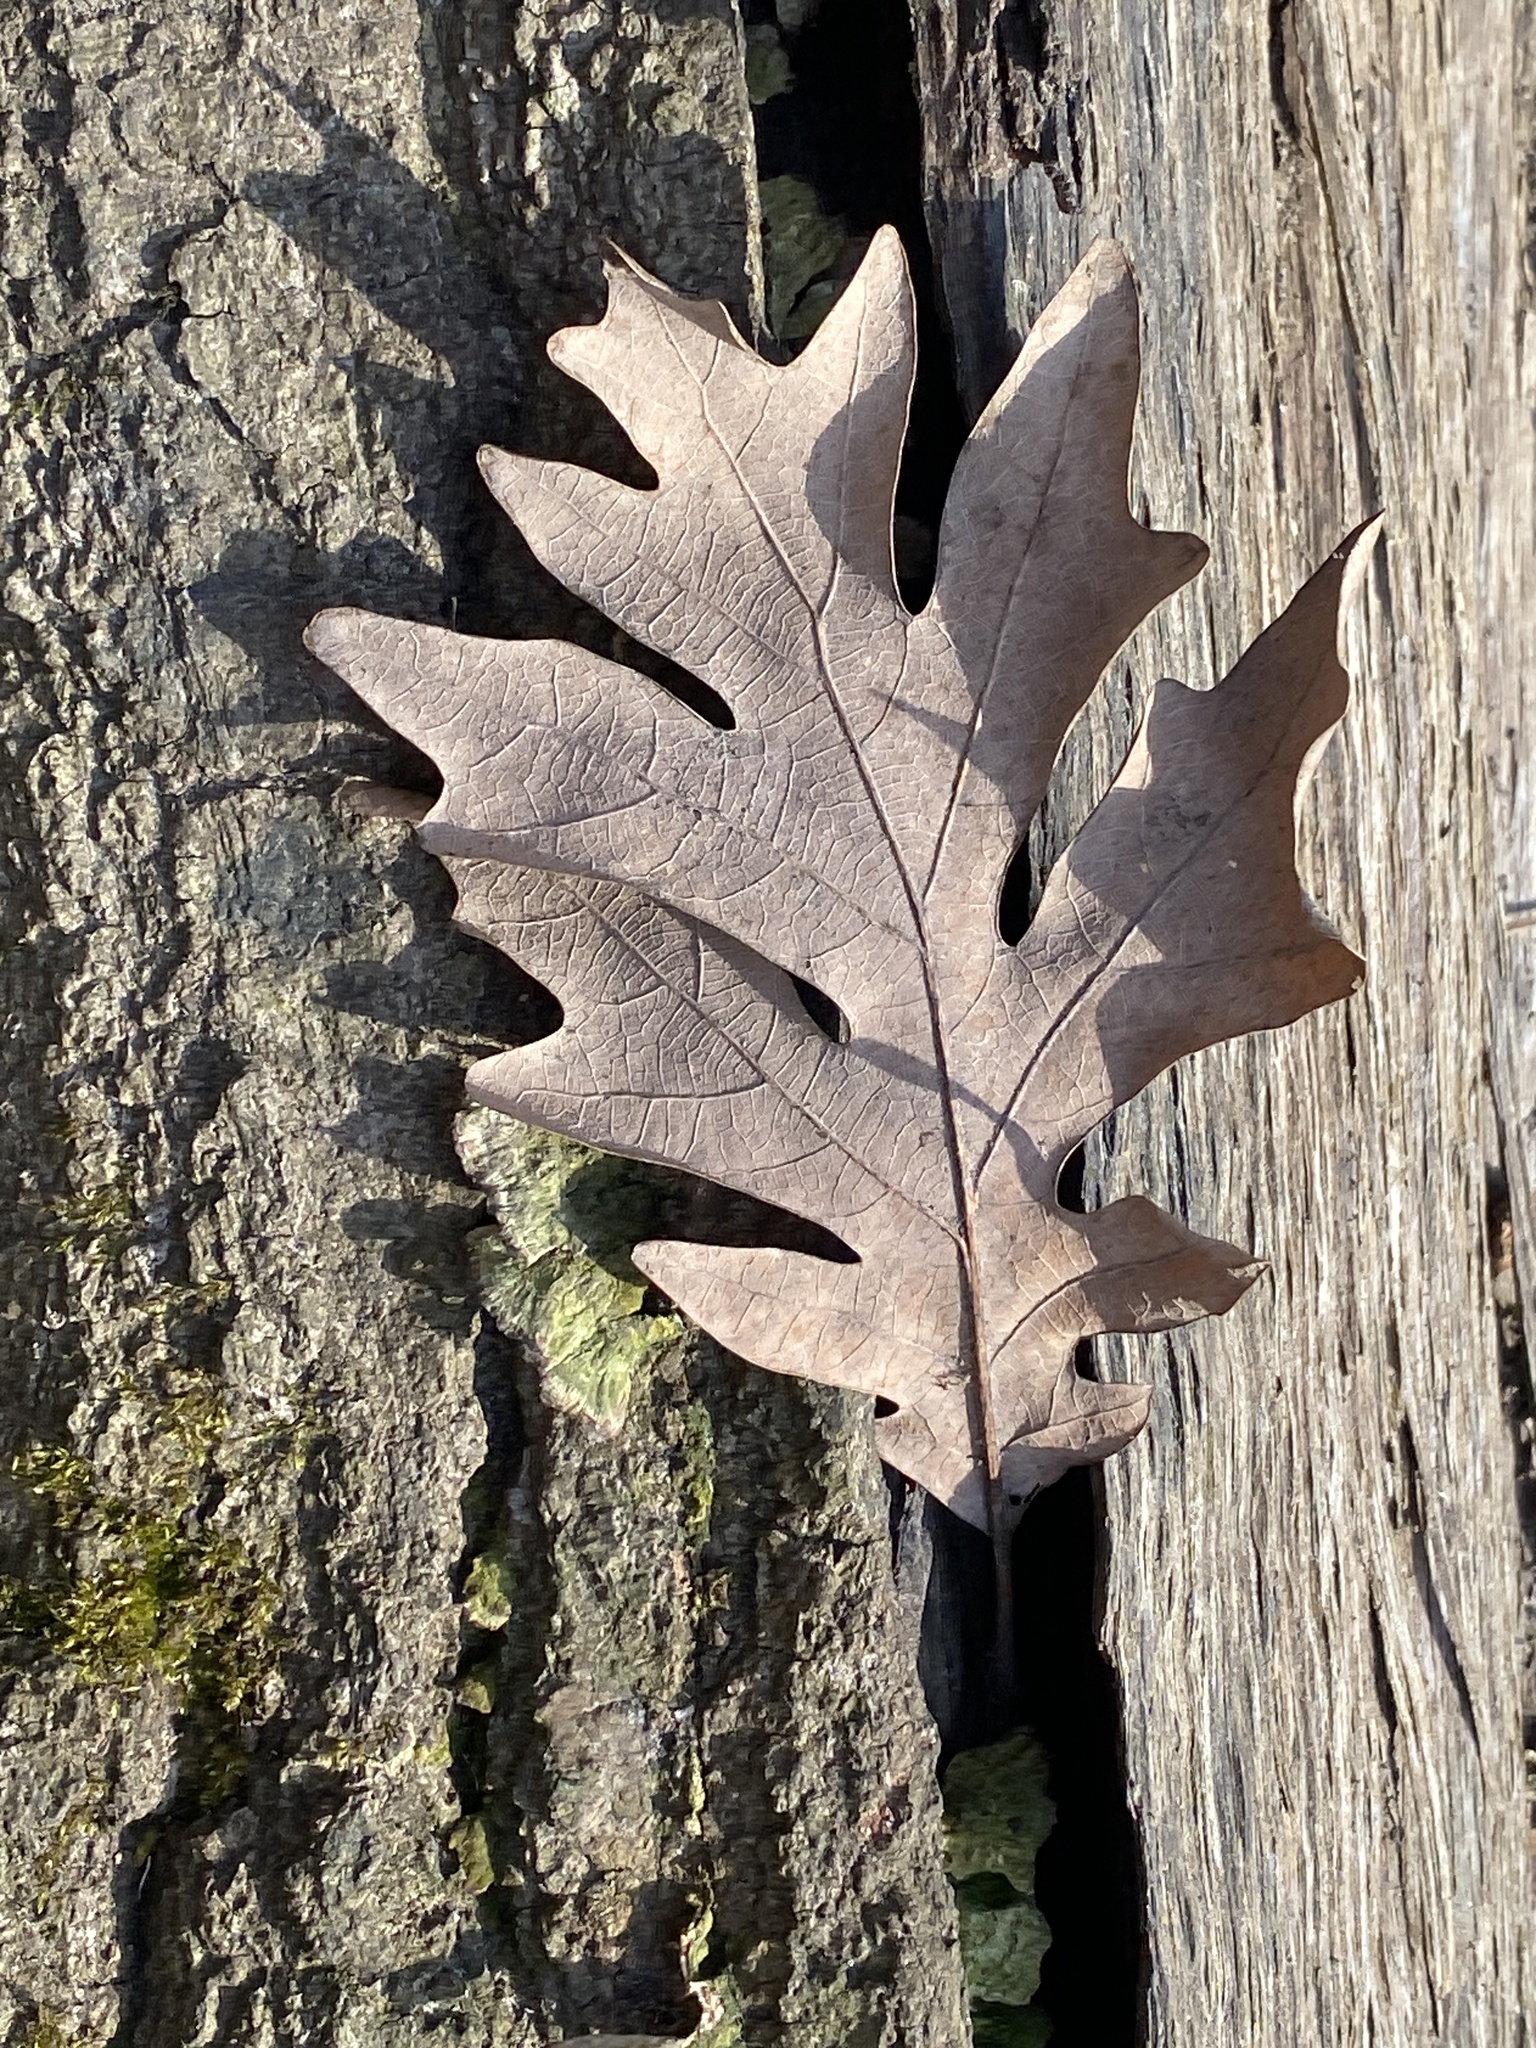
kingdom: Plantae
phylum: Tracheophyta
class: Magnoliopsida
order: Fagales
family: Fagaceae
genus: Quercus
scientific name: Quercus alba
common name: White oak
